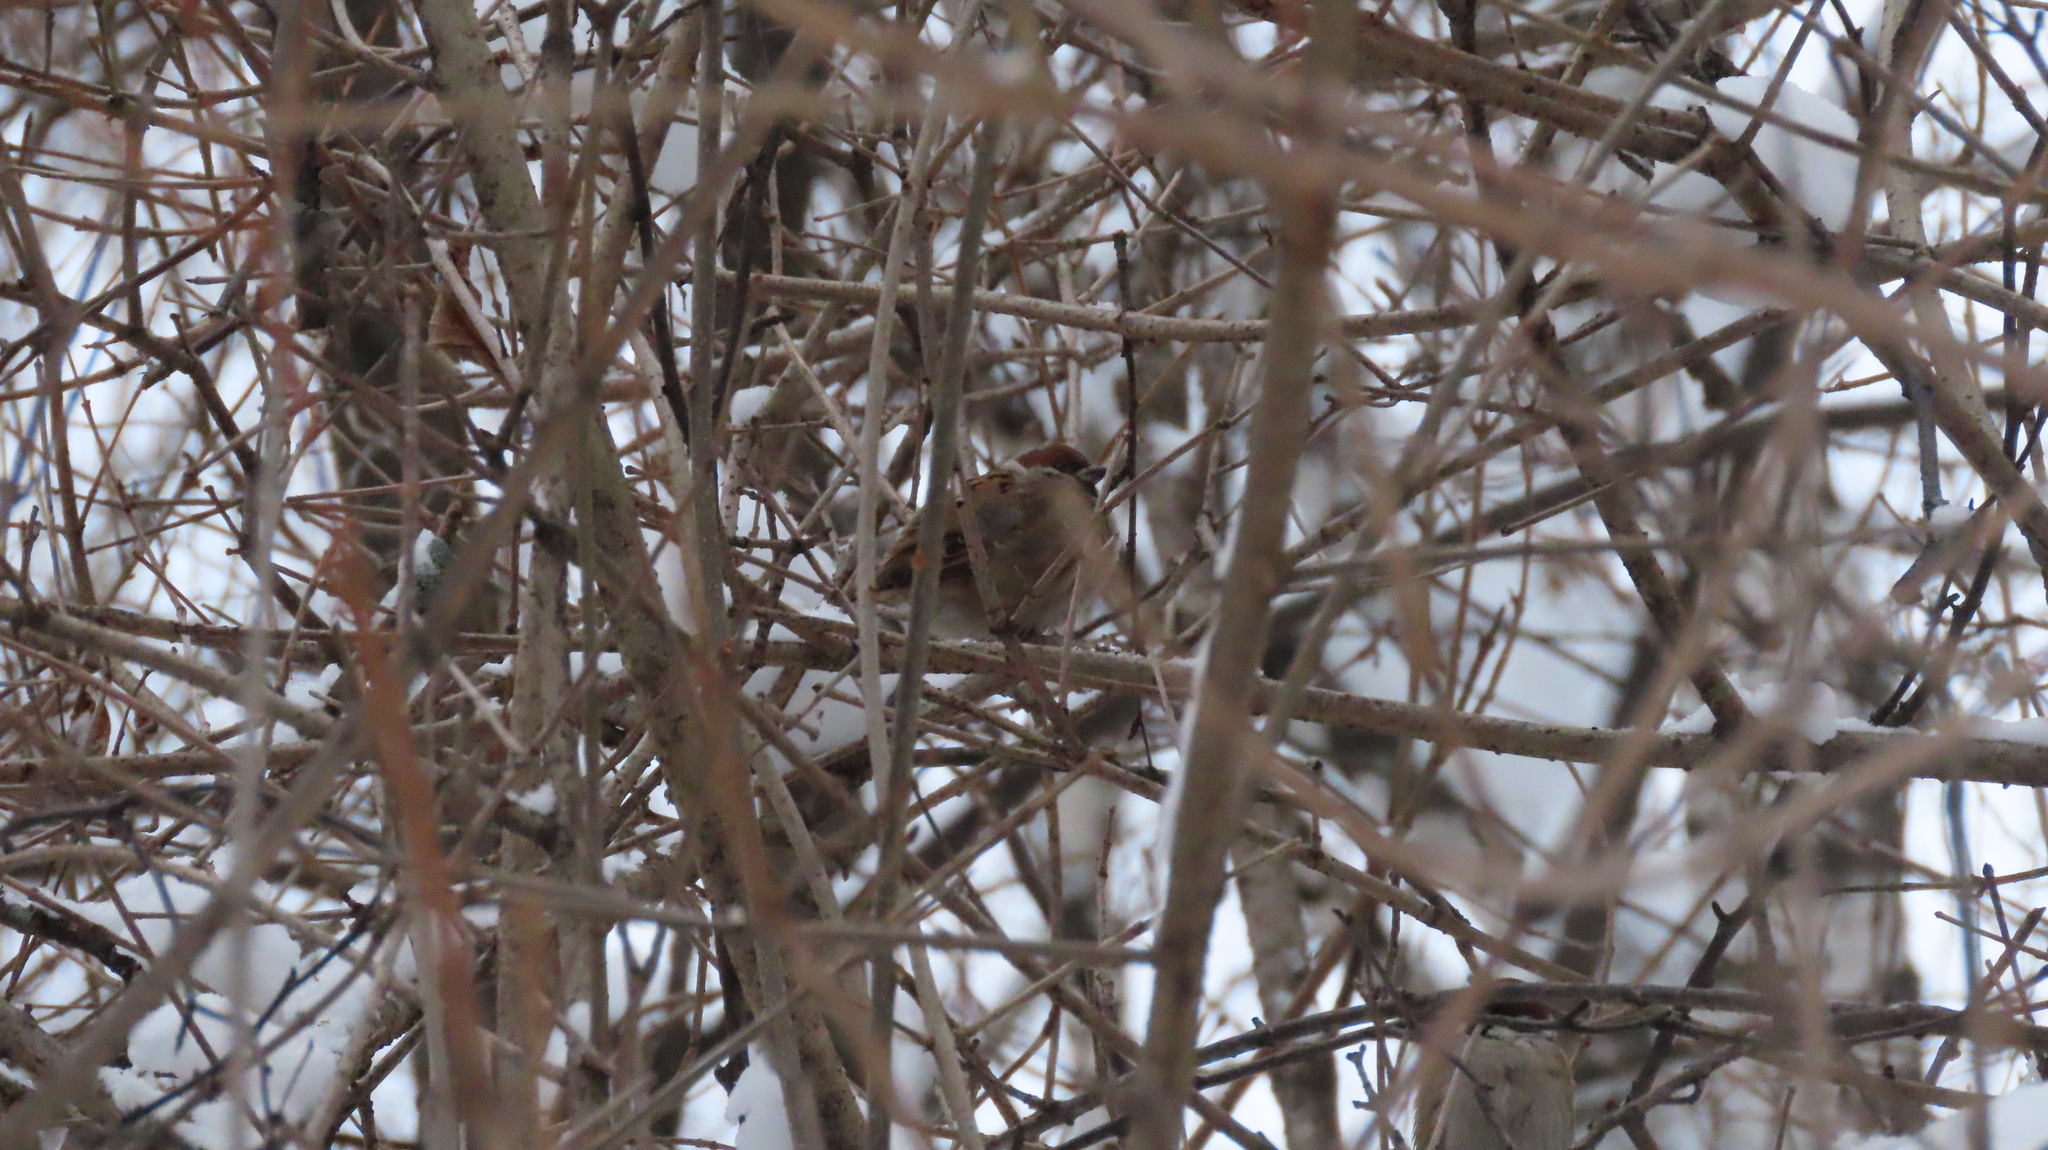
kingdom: Animalia
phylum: Chordata
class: Aves
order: Passeriformes
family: Passeridae
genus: Passer
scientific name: Passer montanus
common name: Eurasian tree sparrow
